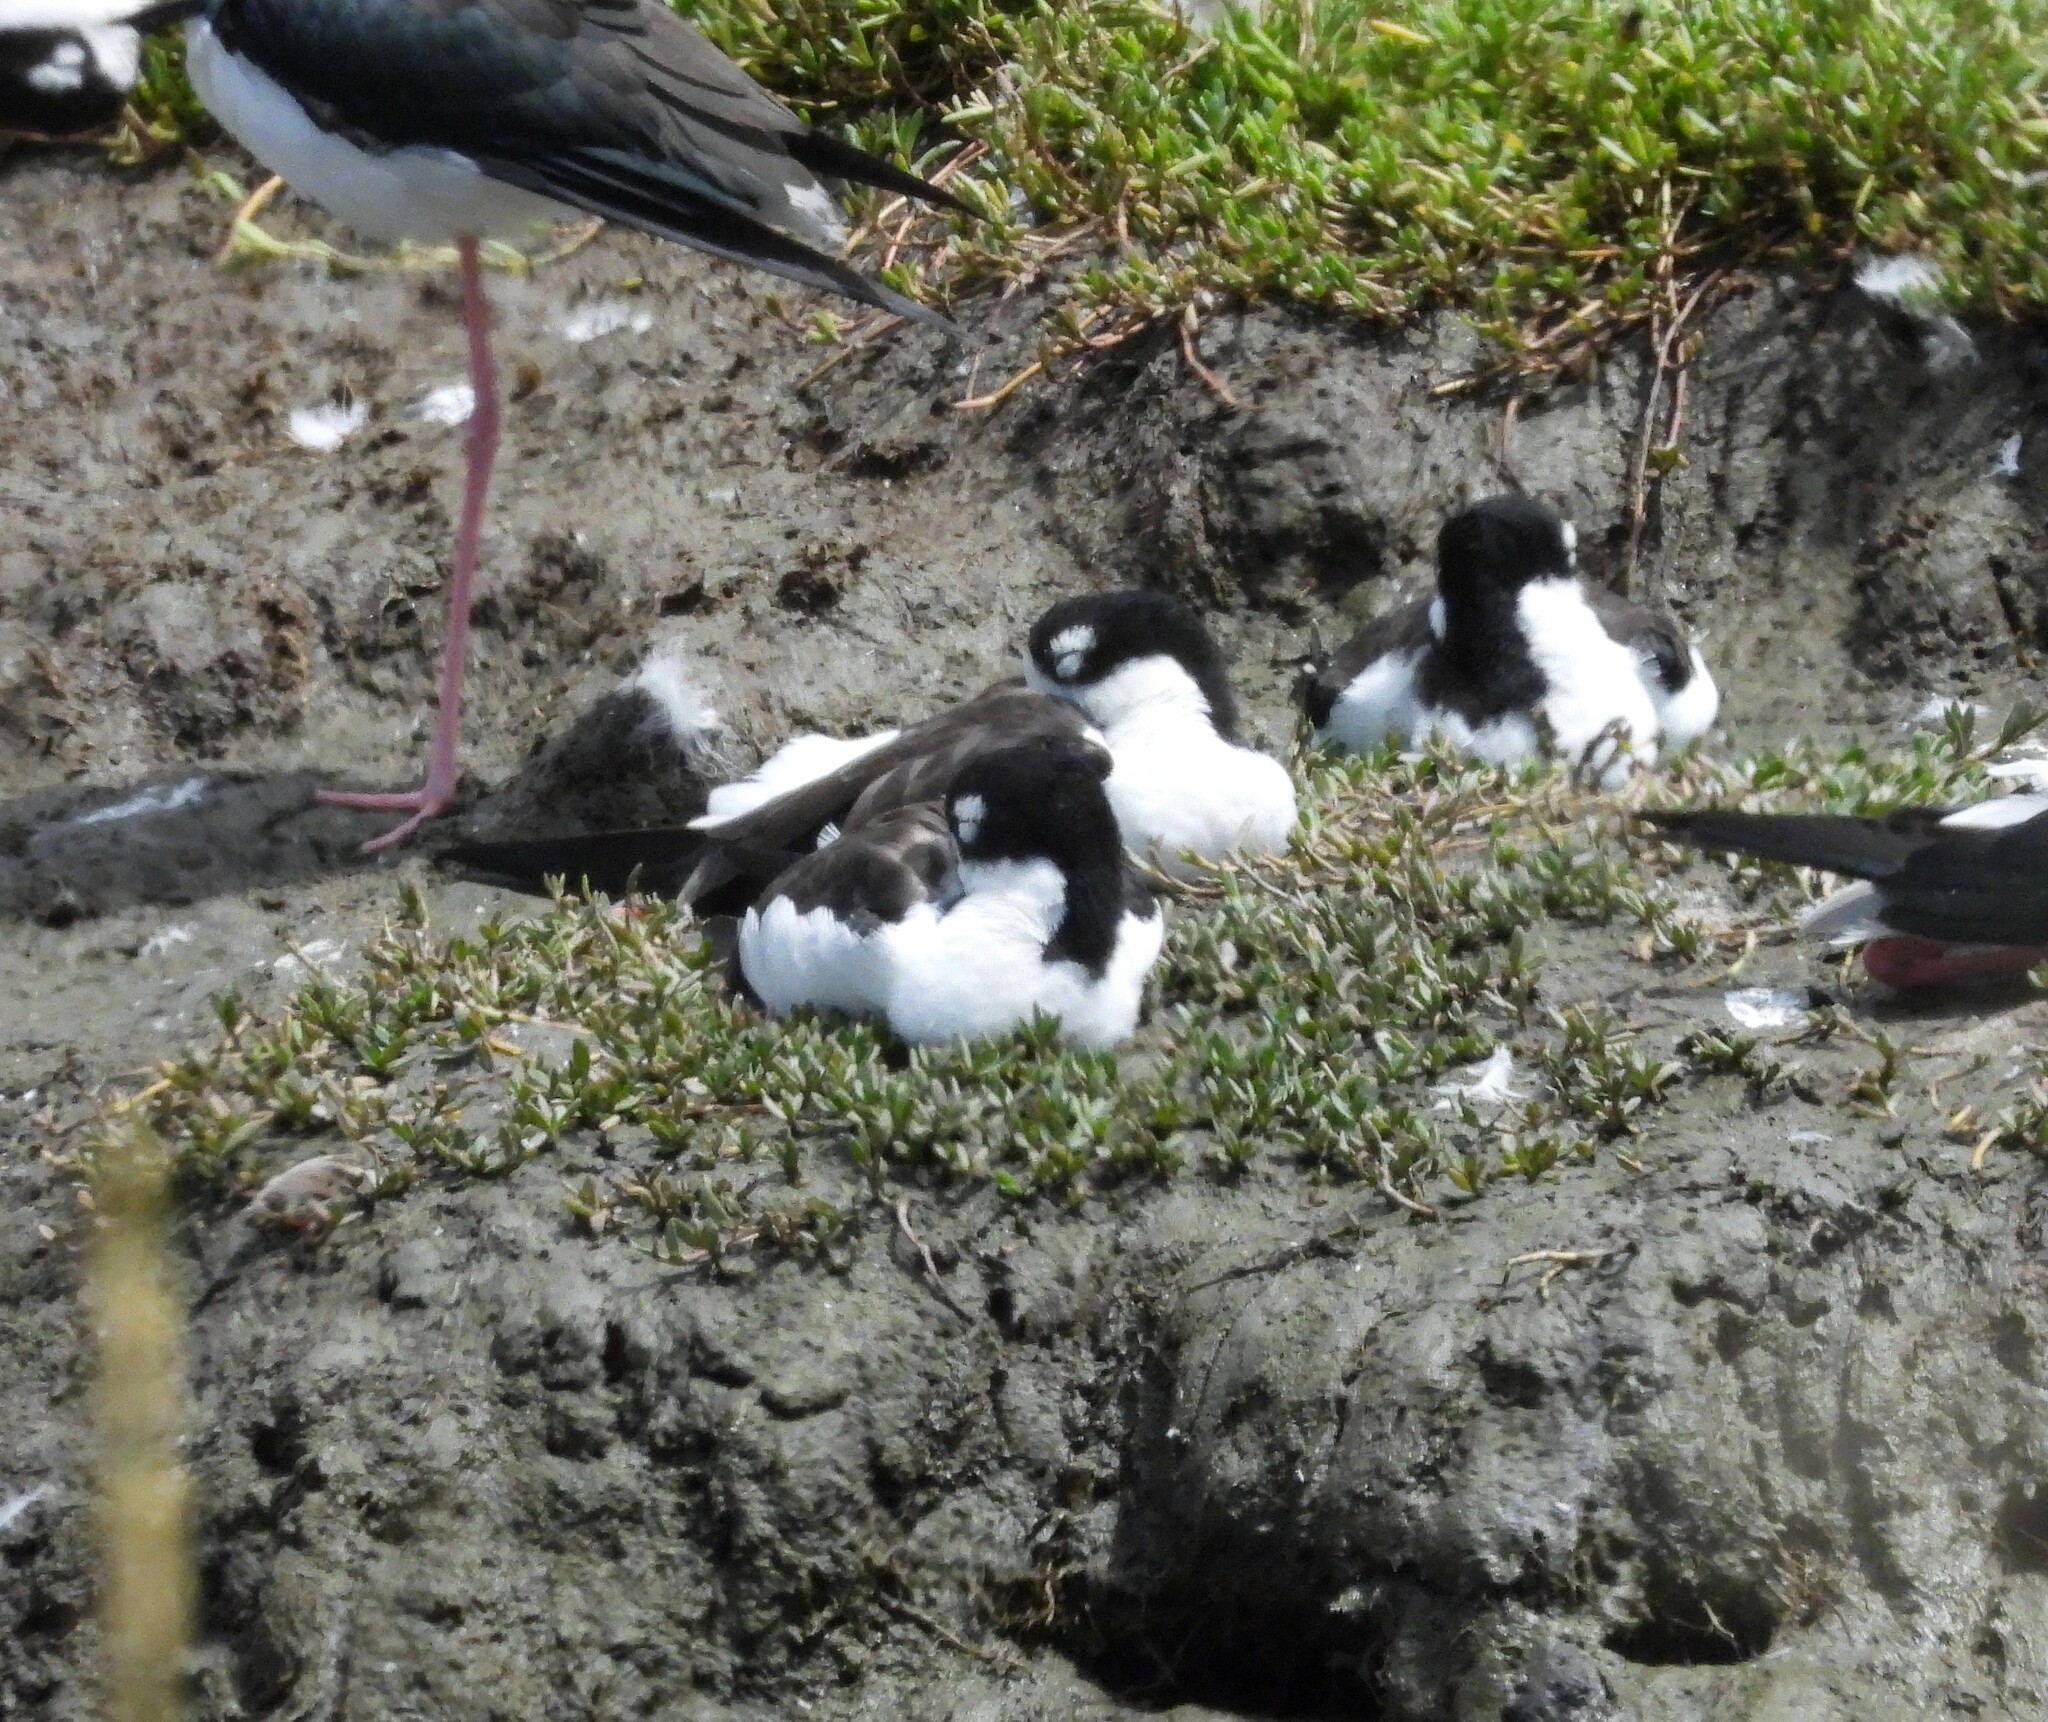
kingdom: Animalia
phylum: Chordata
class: Aves
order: Charadriiformes
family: Recurvirostridae
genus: Himantopus
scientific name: Himantopus mexicanus
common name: Black-necked stilt
